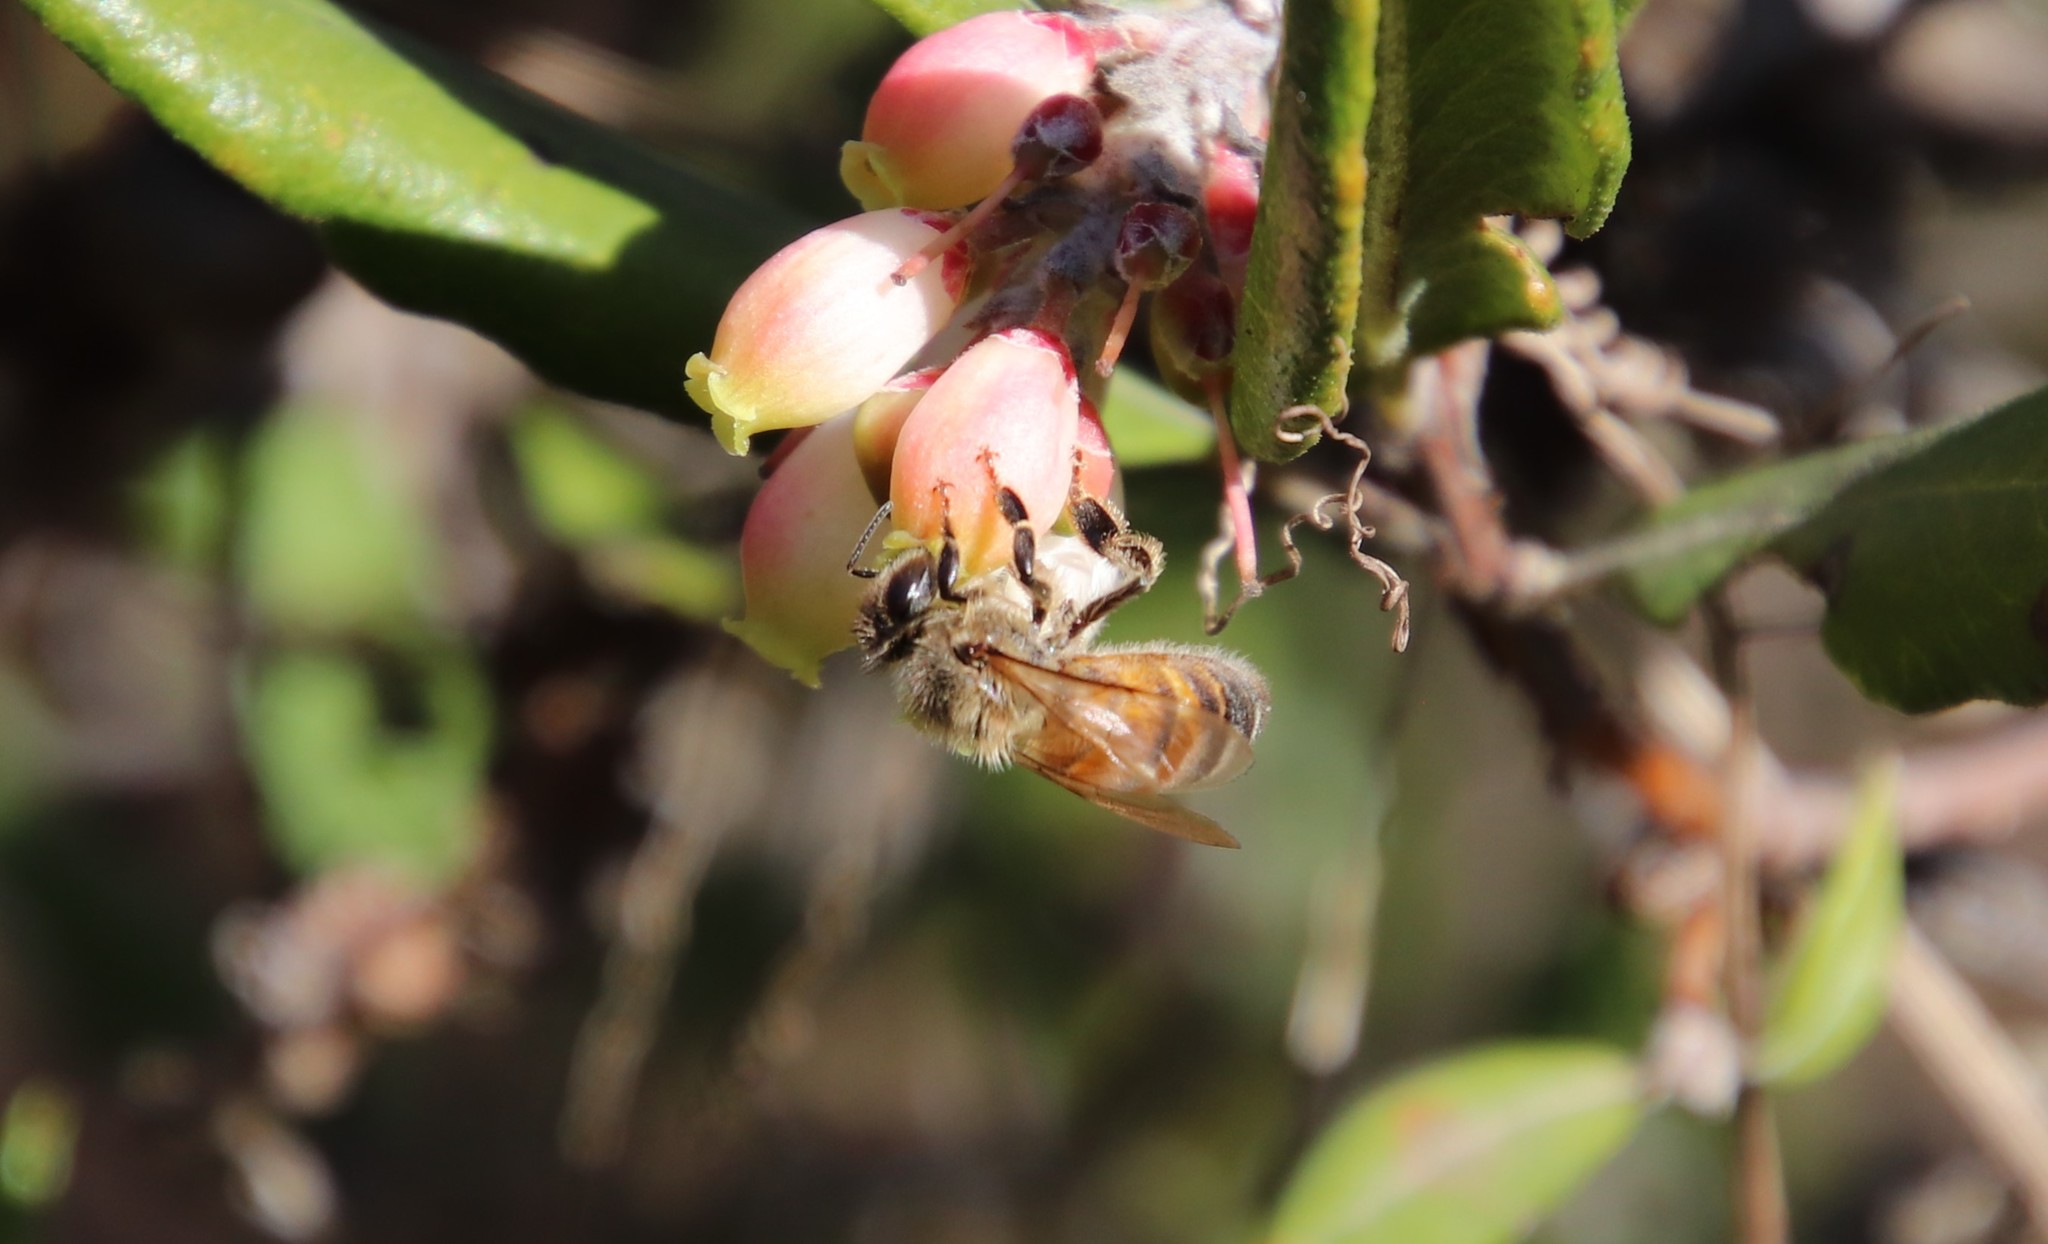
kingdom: Animalia
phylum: Arthropoda
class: Insecta
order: Hymenoptera
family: Apidae
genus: Apis
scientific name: Apis mellifera
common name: Honey bee
